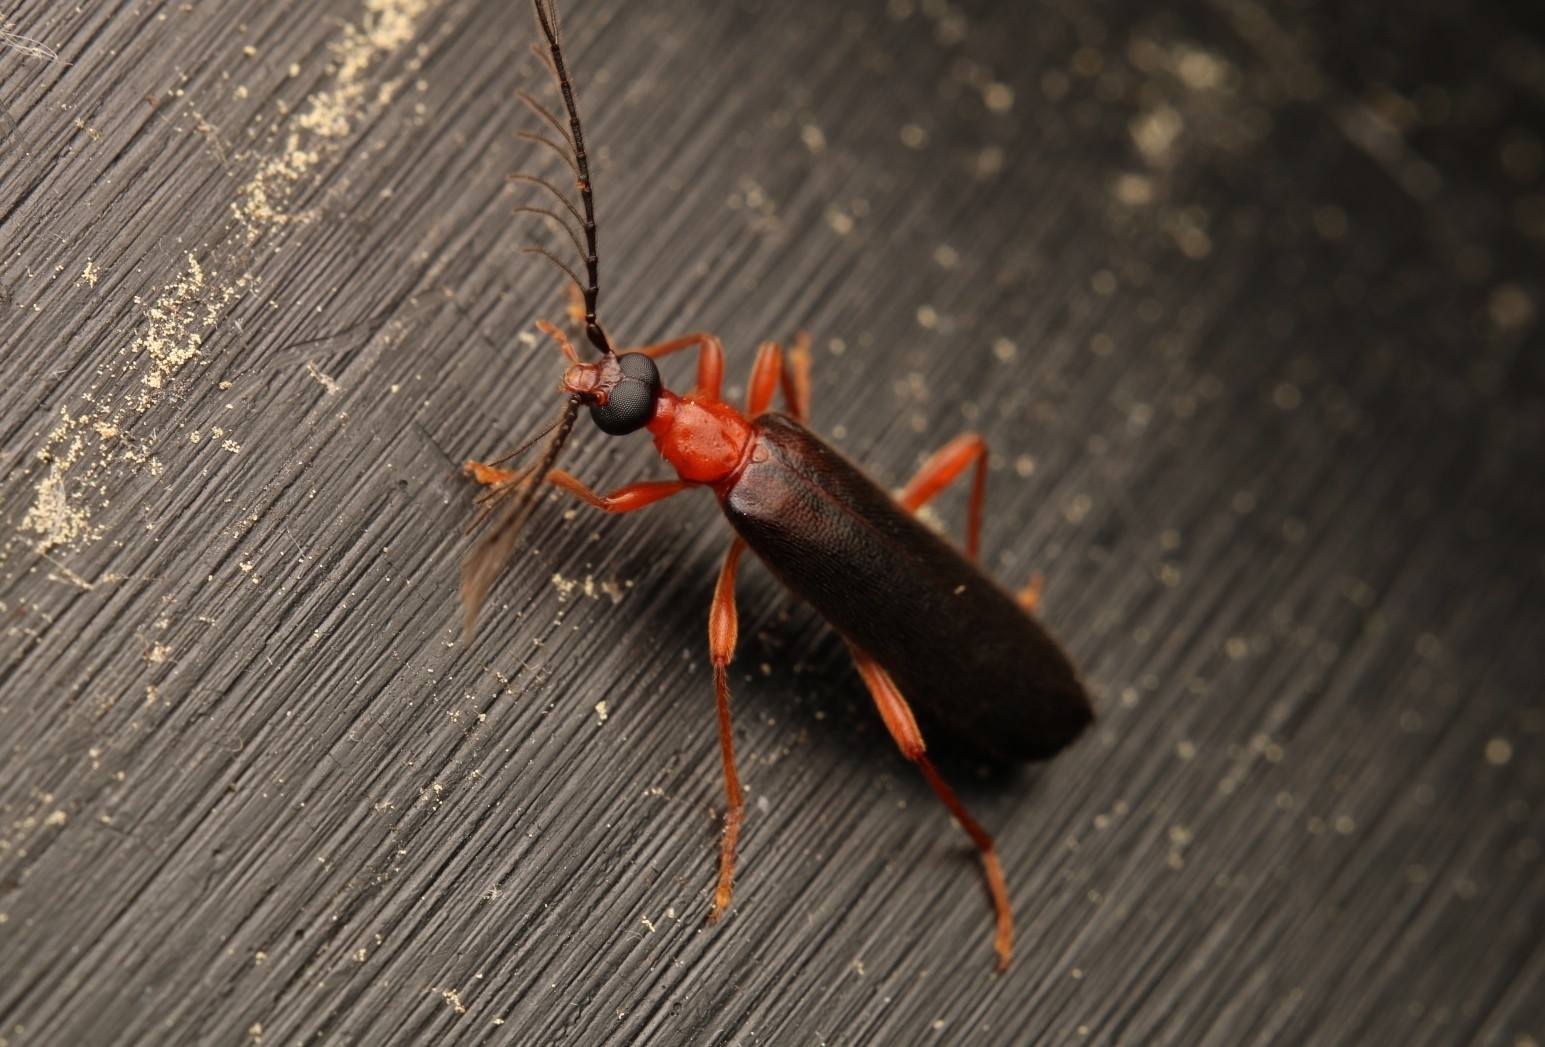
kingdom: Animalia
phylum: Arthropoda
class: Insecta
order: Coleoptera
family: Pyrochroidae
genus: Dendroides
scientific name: Dendroides canadensis
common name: Canada fire-colored beetle
